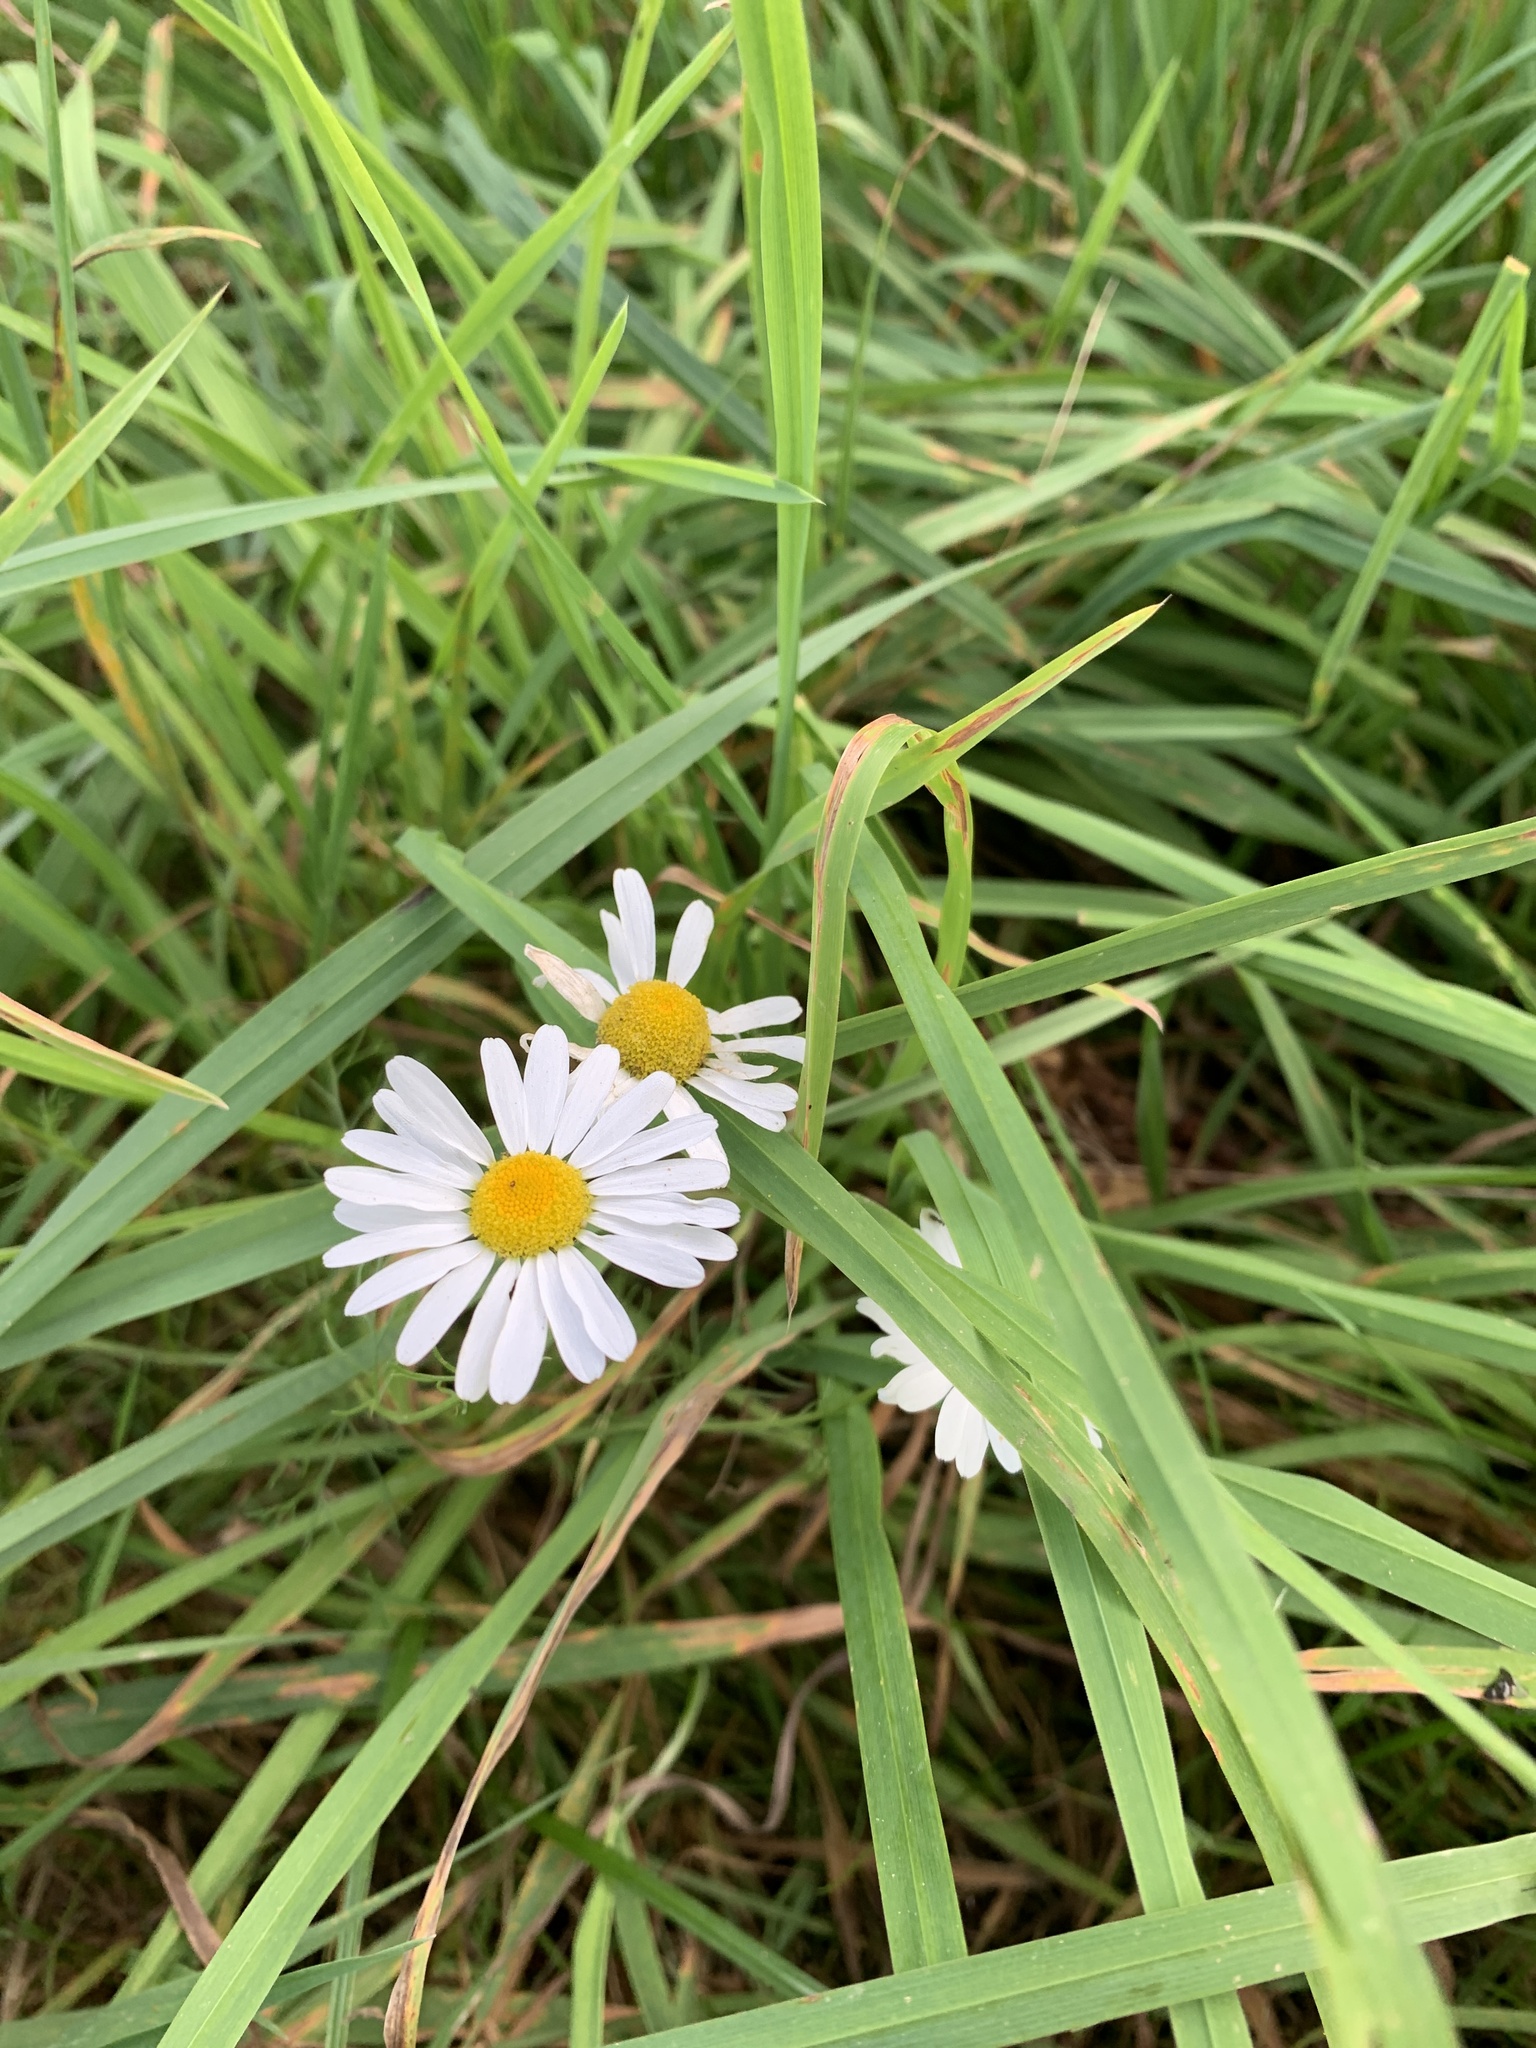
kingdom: Plantae
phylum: Tracheophyta
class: Magnoliopsida
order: Asterales
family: Asteraceae
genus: Bellis
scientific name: Bellis perennis
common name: Lawndaisy
